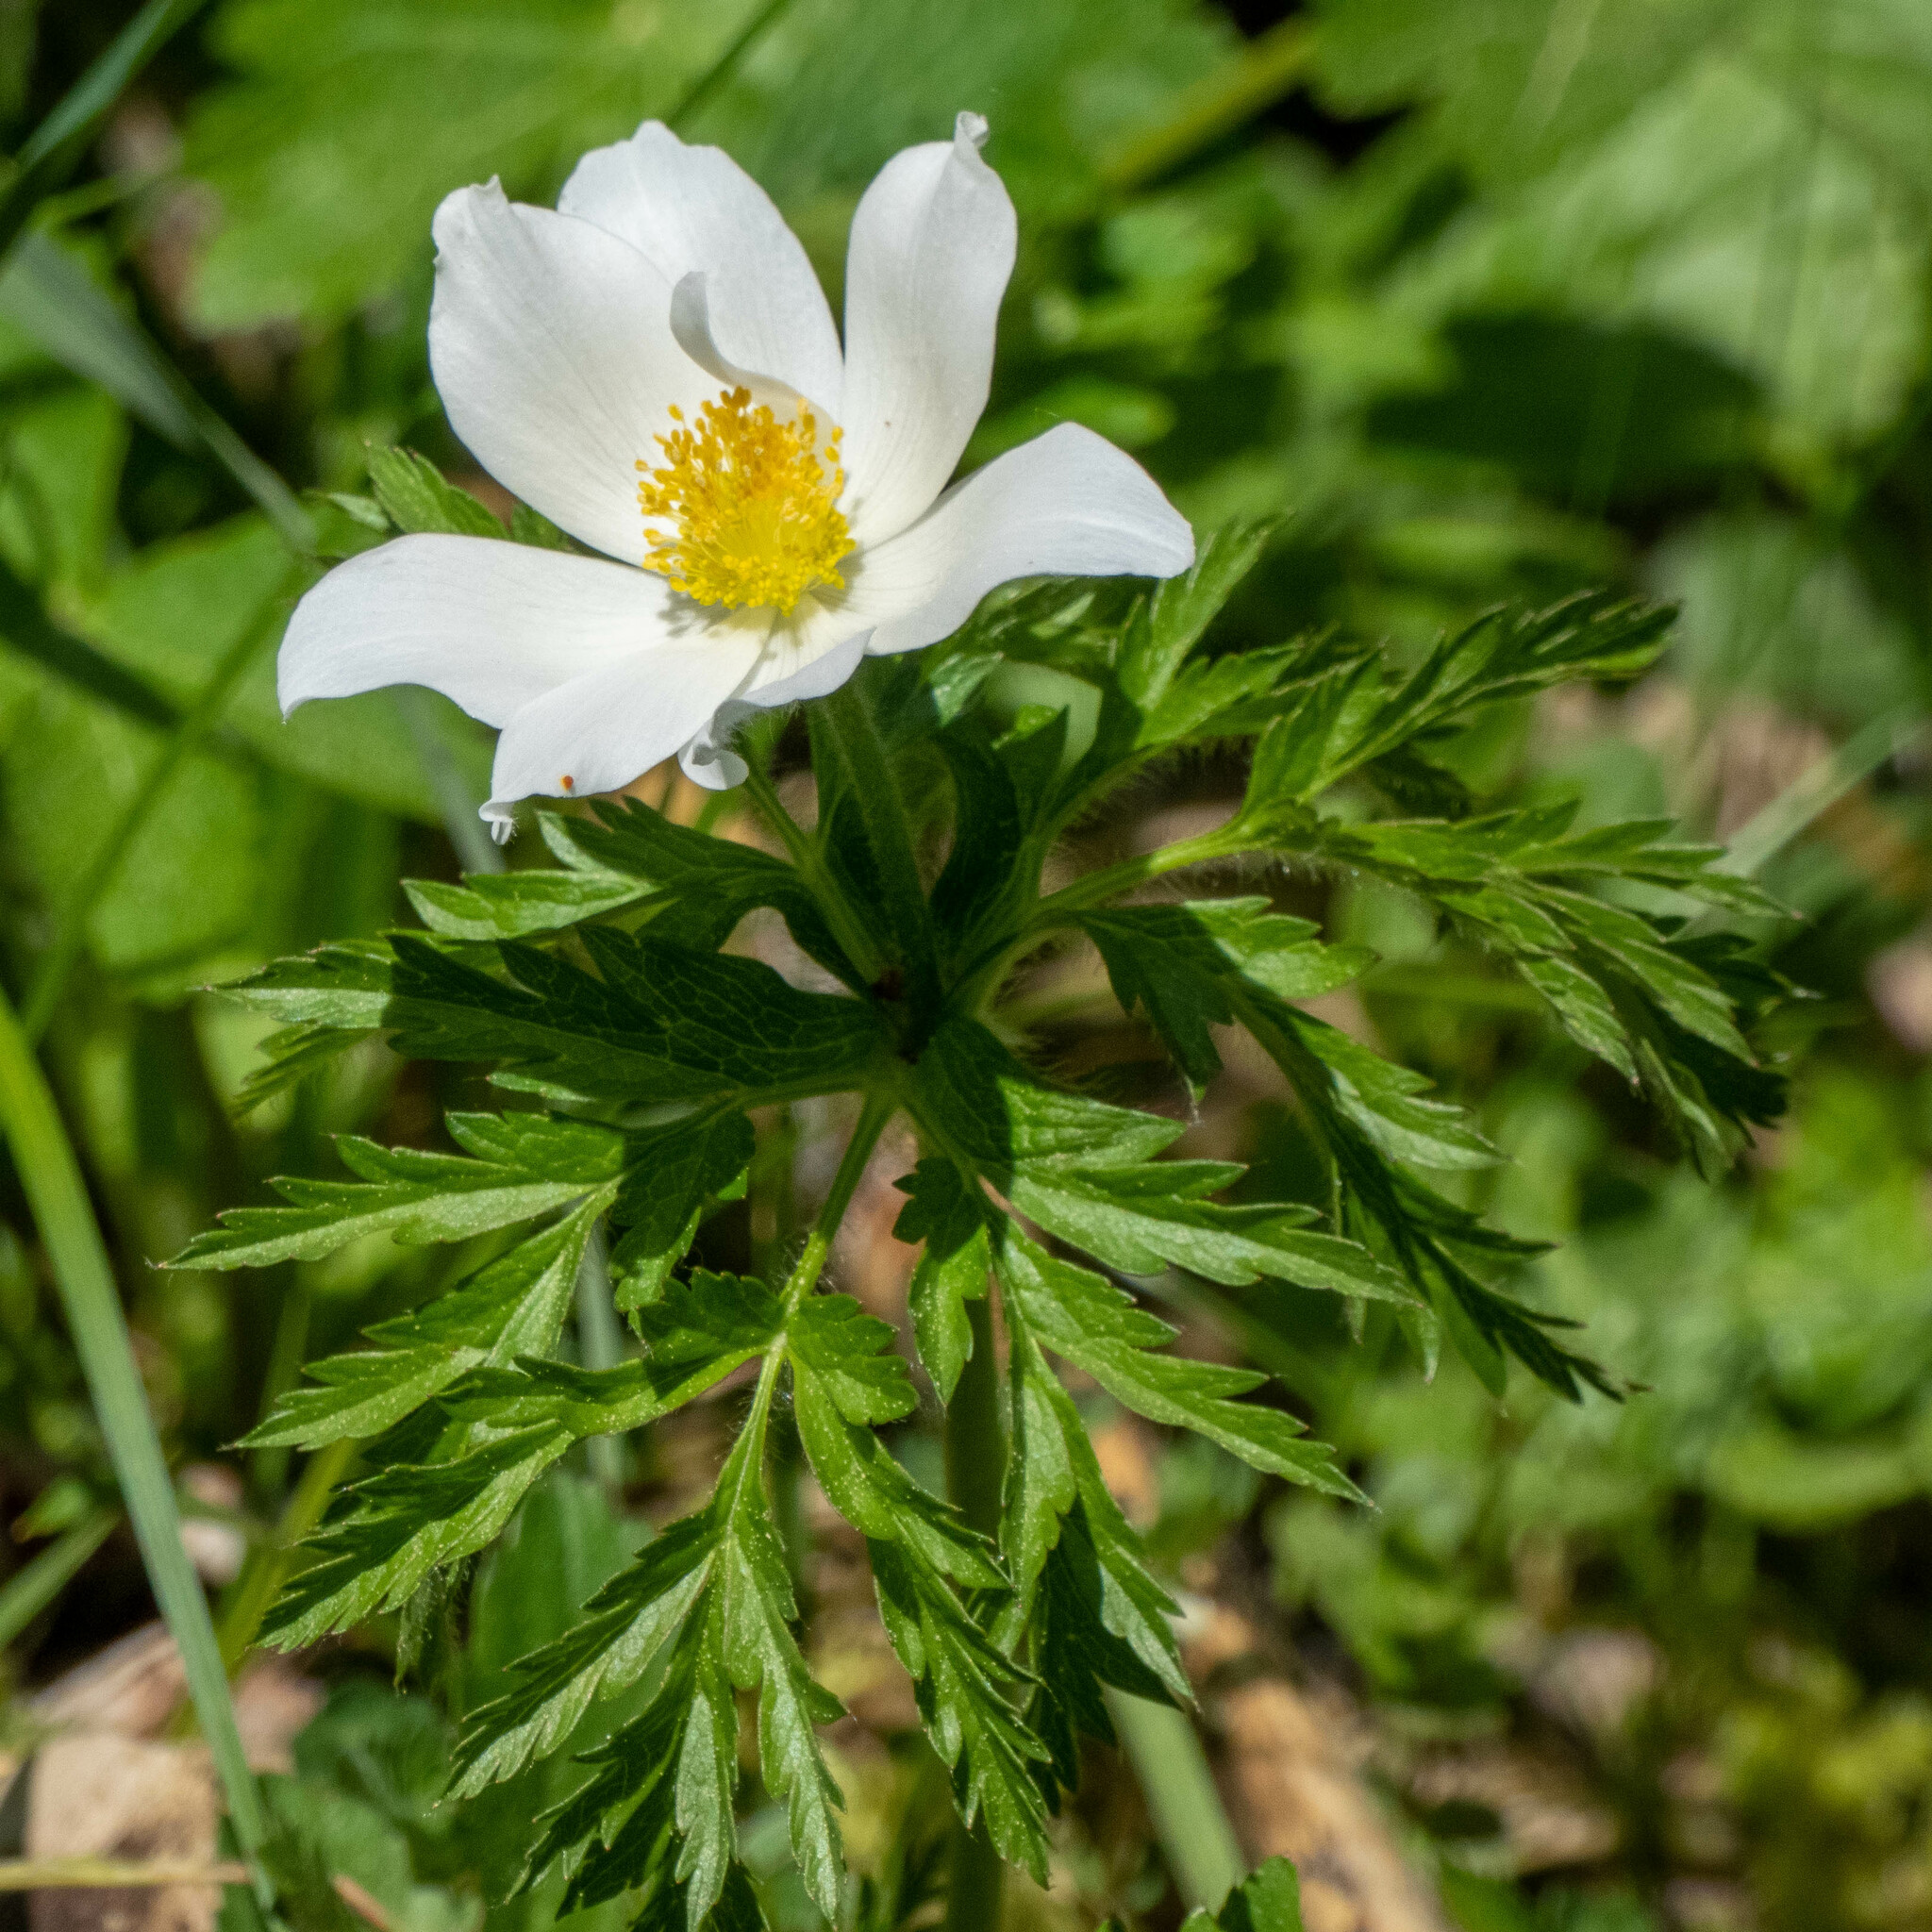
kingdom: Plantae
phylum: Tracheophyta
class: Magnoliopsida
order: Ranunculales
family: Ranunculaceae
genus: Pulsatilla
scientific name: Pulsatilla alpina
